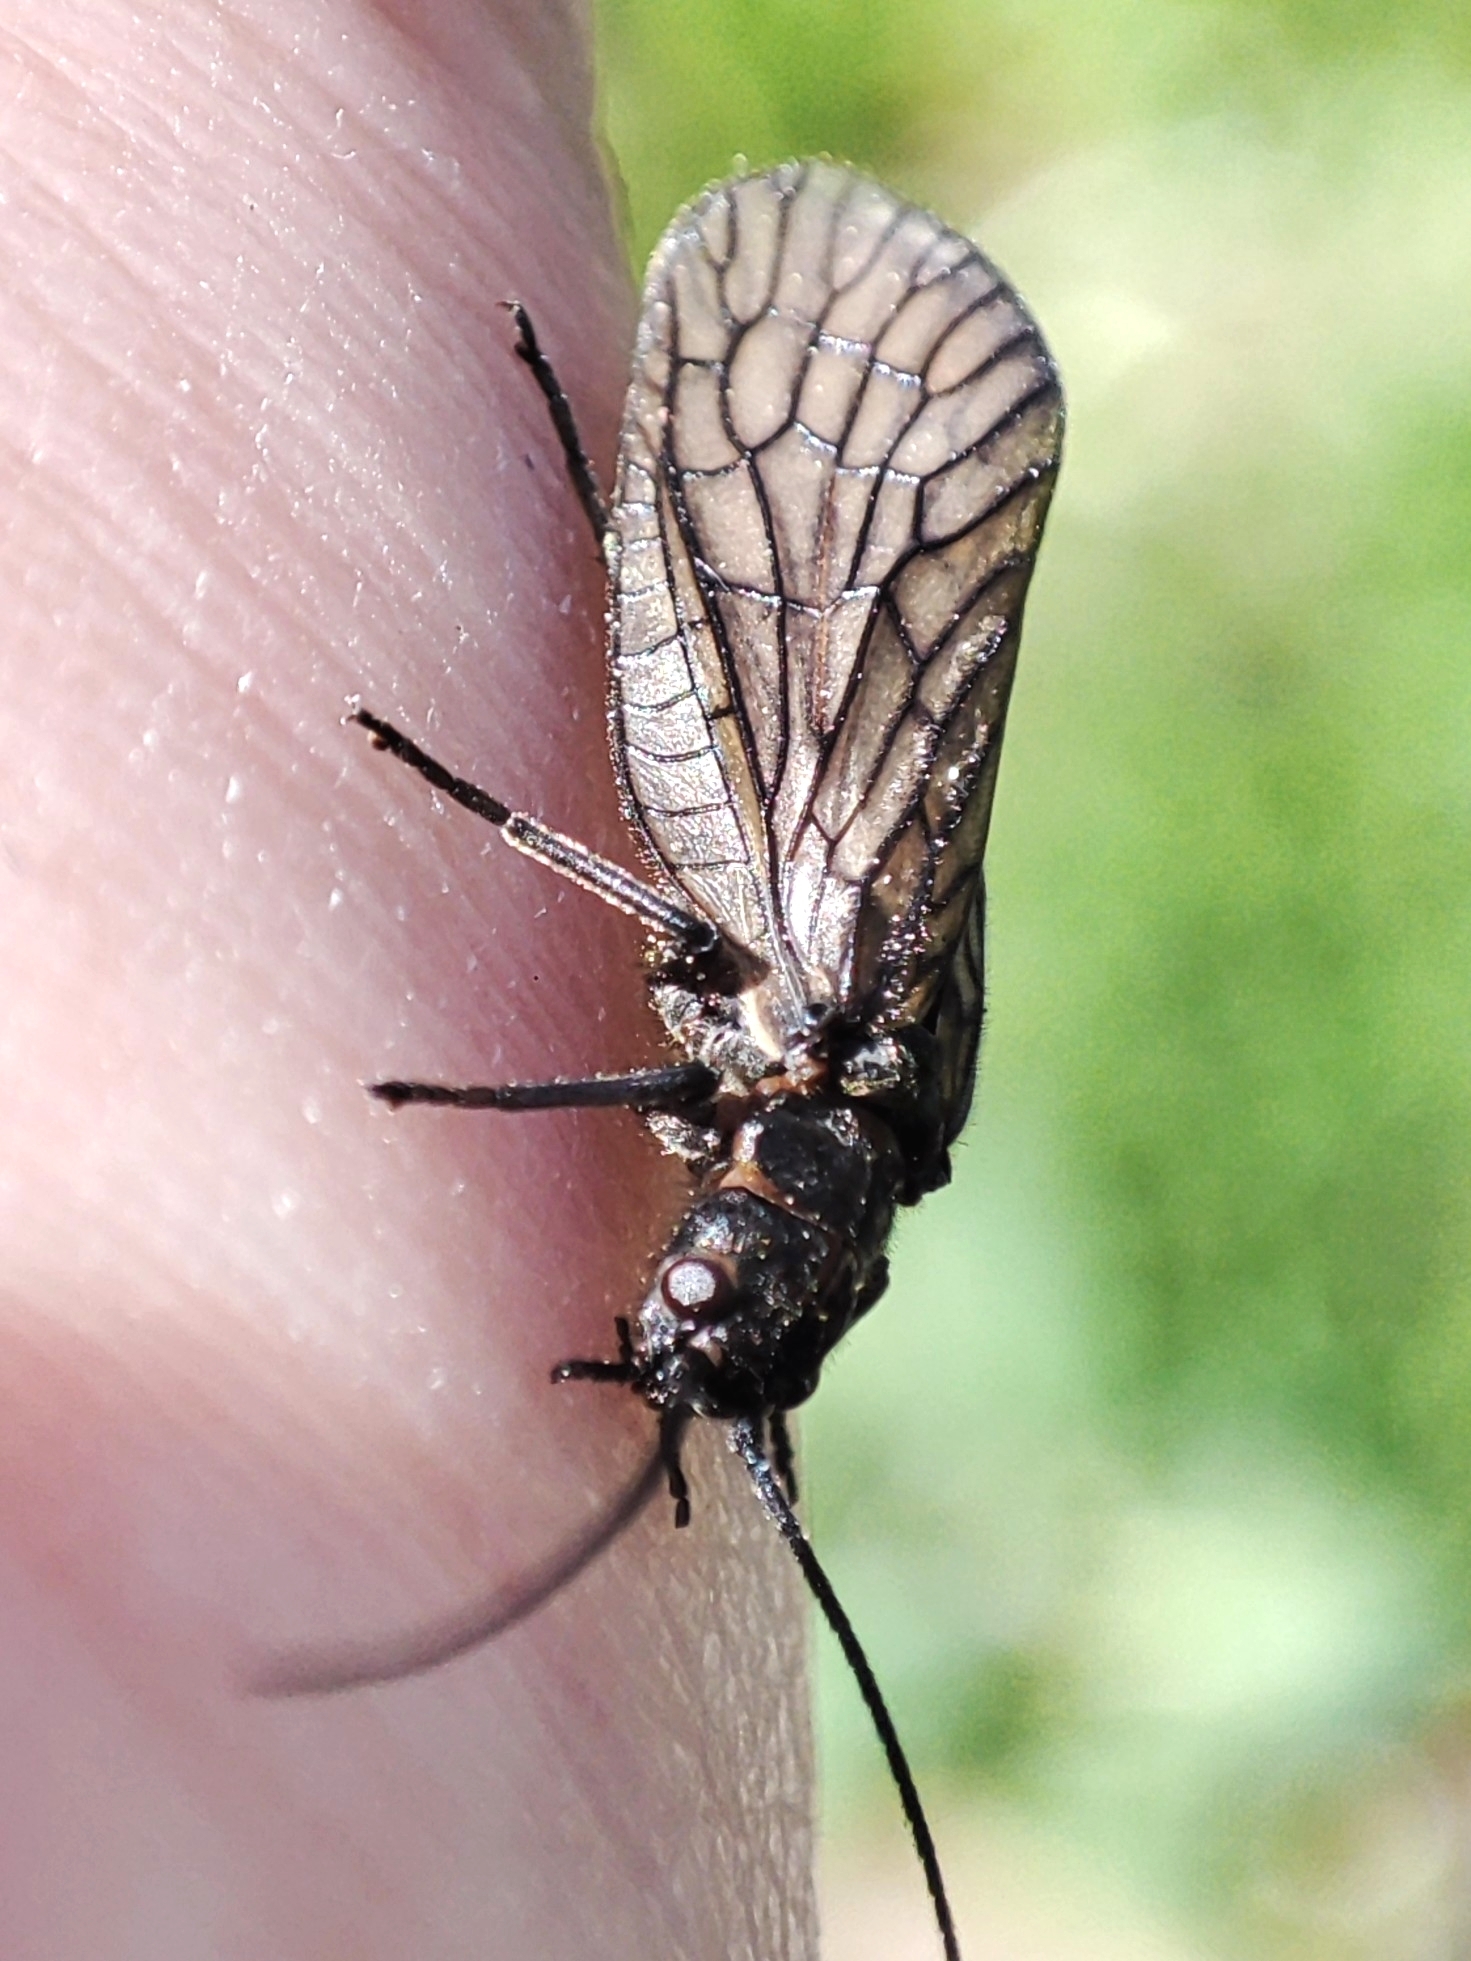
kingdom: Animalia
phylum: Arthropoda
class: Insecta
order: Megaloptera
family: Sialidae
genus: Sialis
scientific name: Sialis
